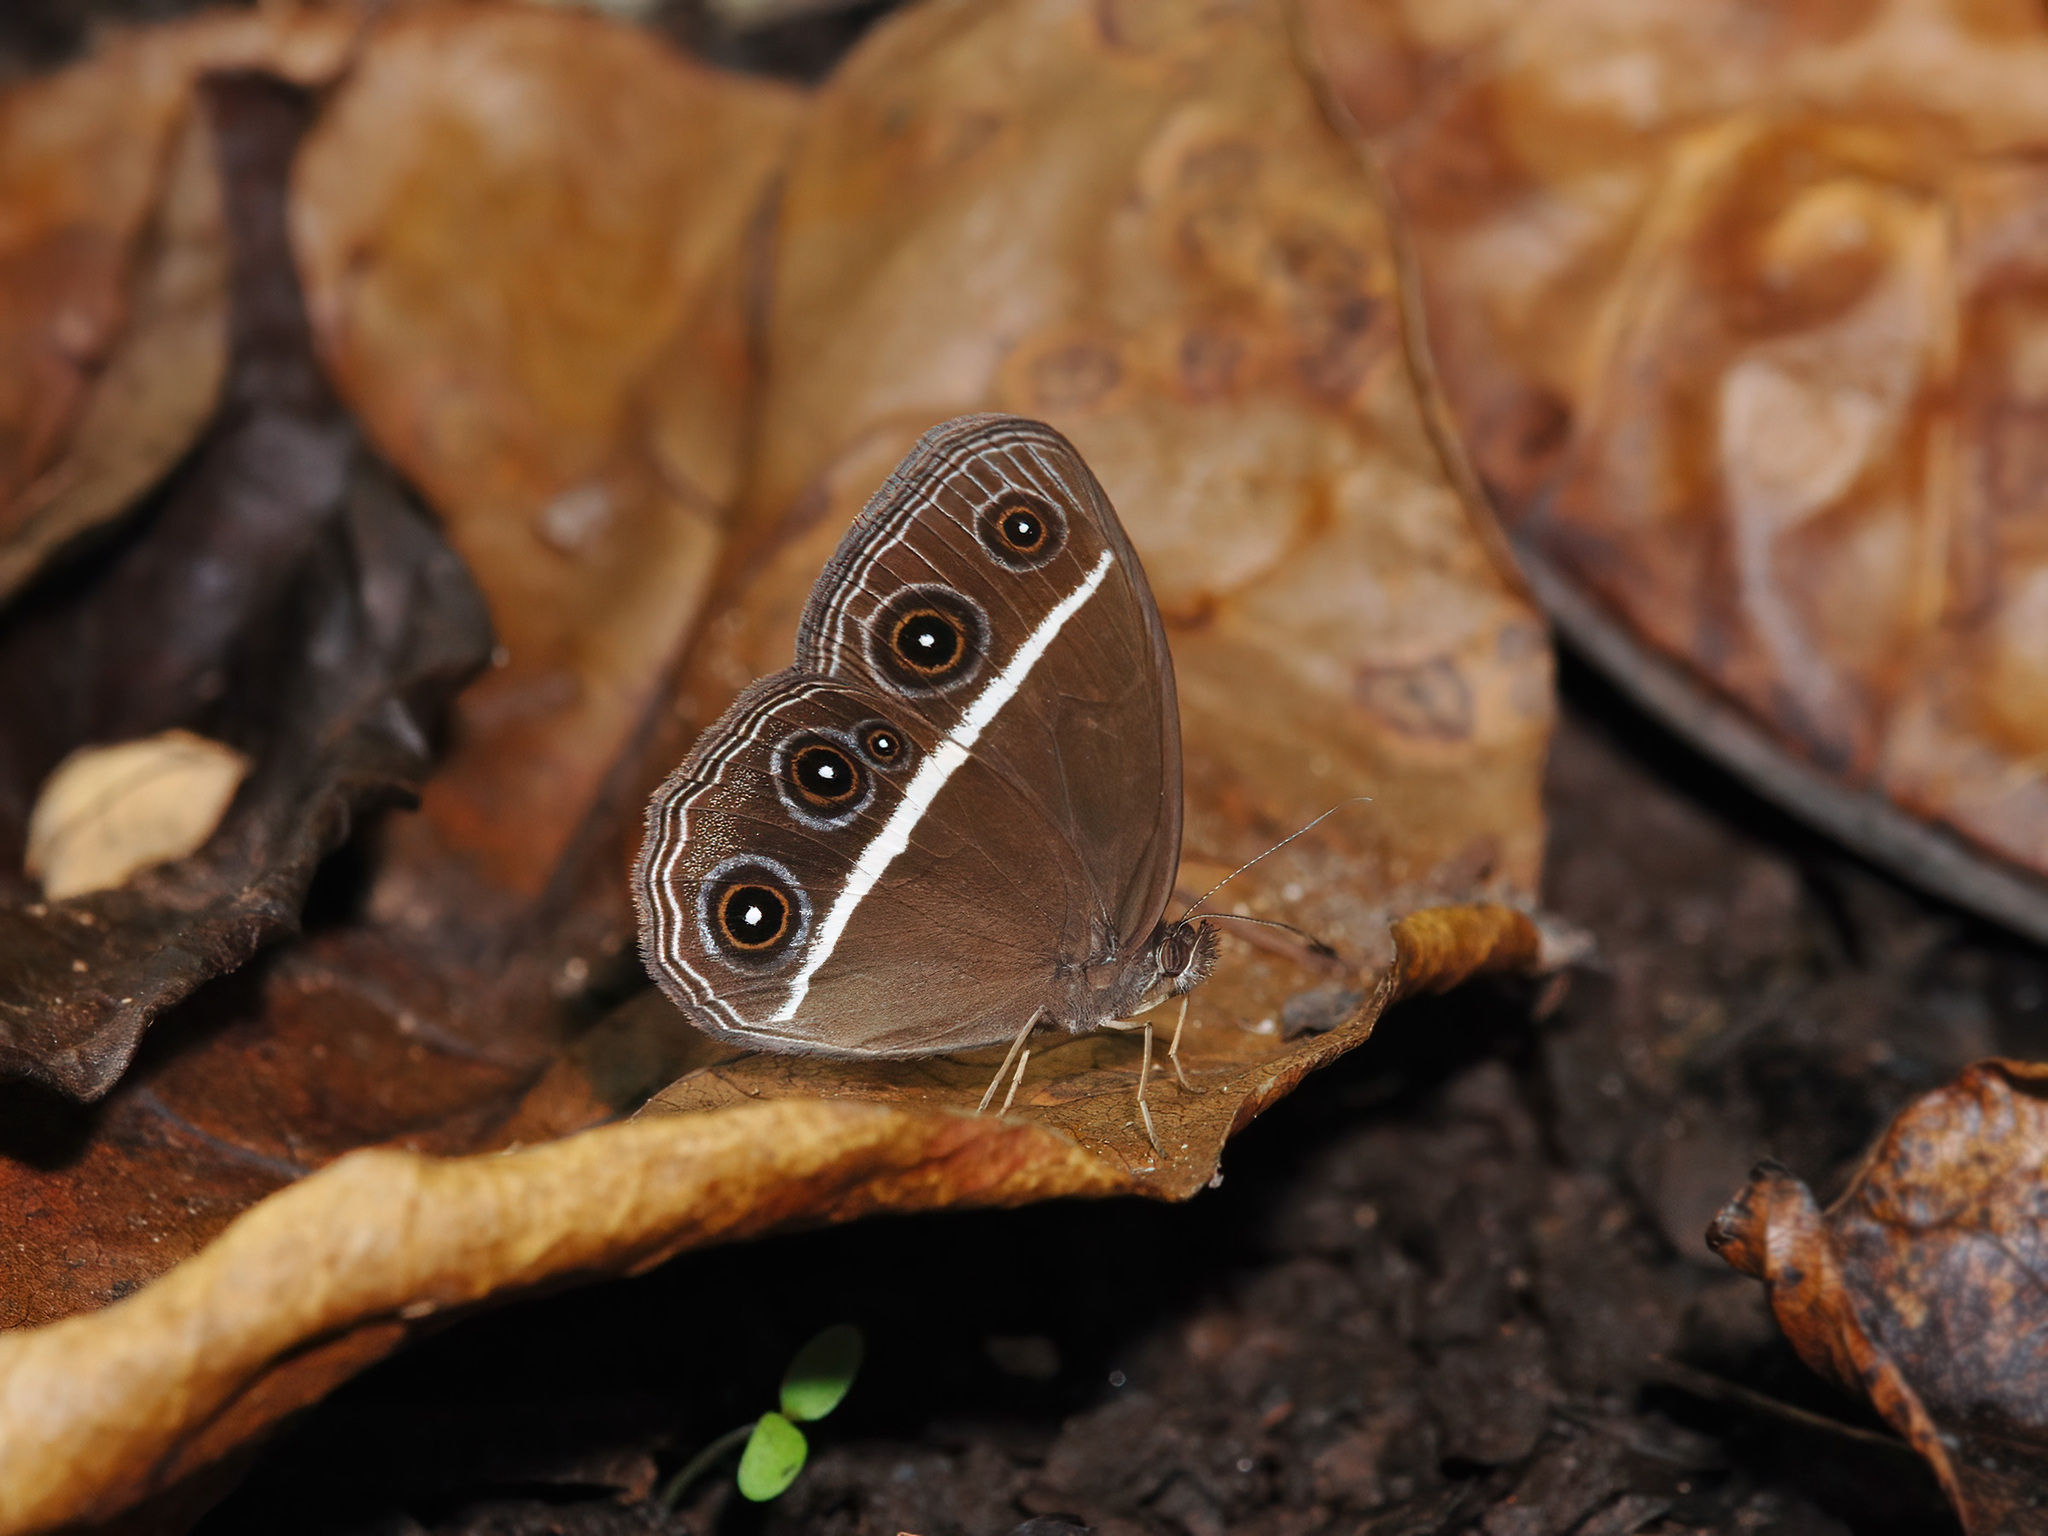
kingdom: Animalia
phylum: Arthropoda
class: Insecta
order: Lepidoptera
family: Nymphalidae
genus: Orsotriaena
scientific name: Orsotriaena medus
